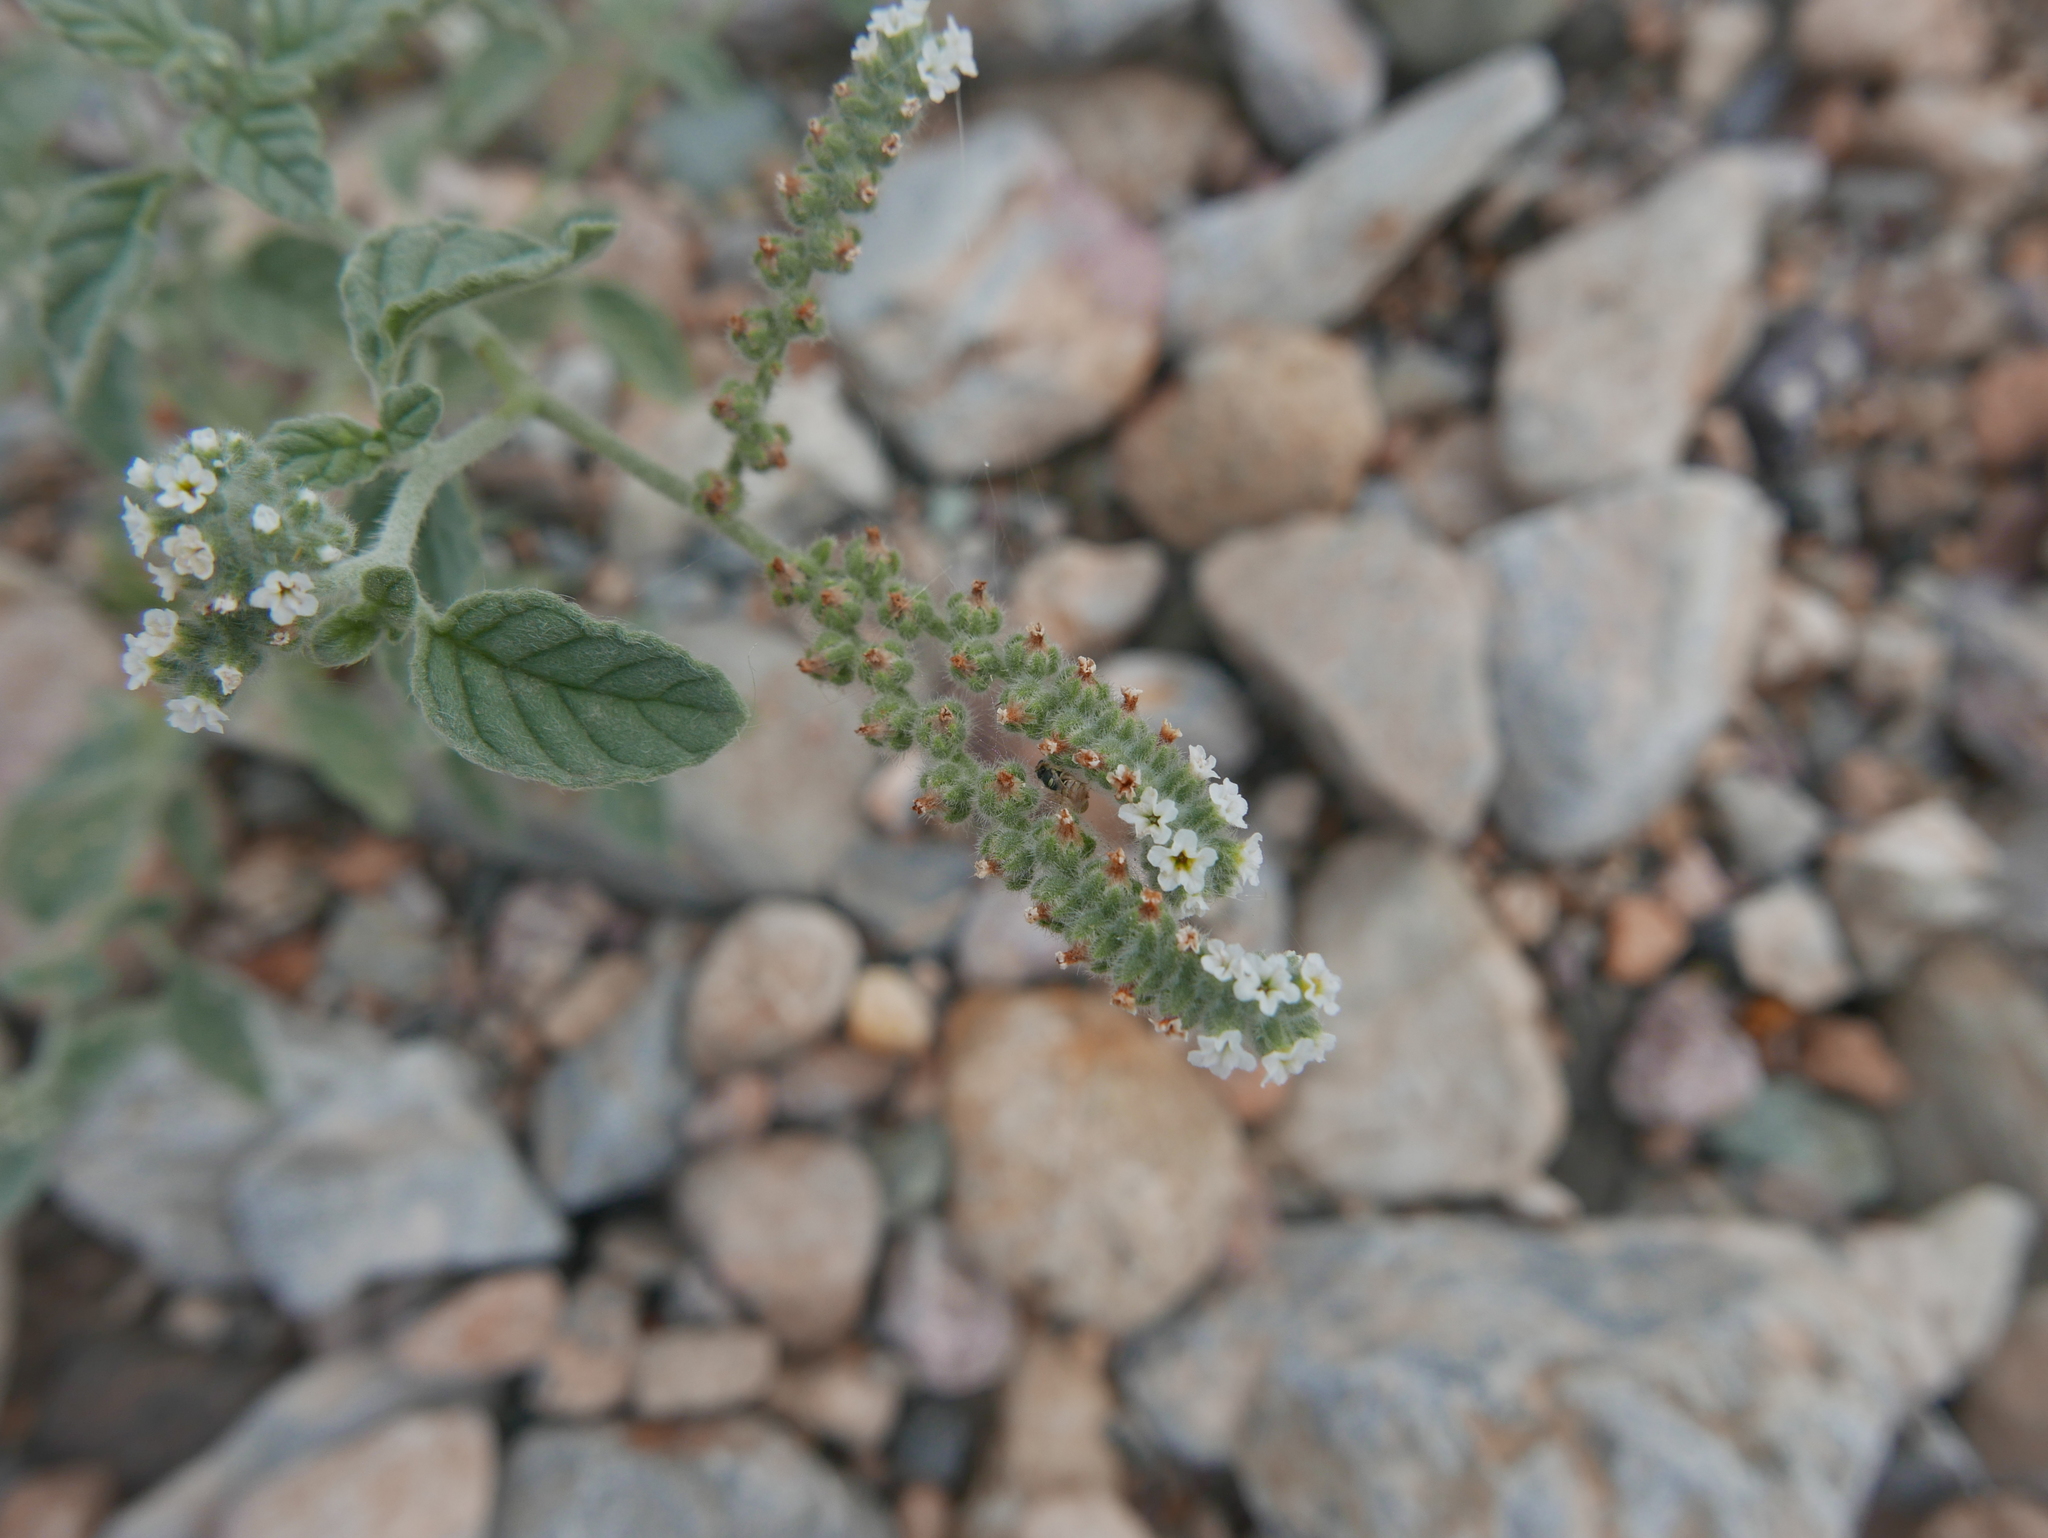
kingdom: Plantae
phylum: Tracheophyta
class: Magnoliopsida
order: Boraginales
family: Heliotropiaceae
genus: Heliotropium
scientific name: Heliotropium europaeum
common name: European heliotrope
